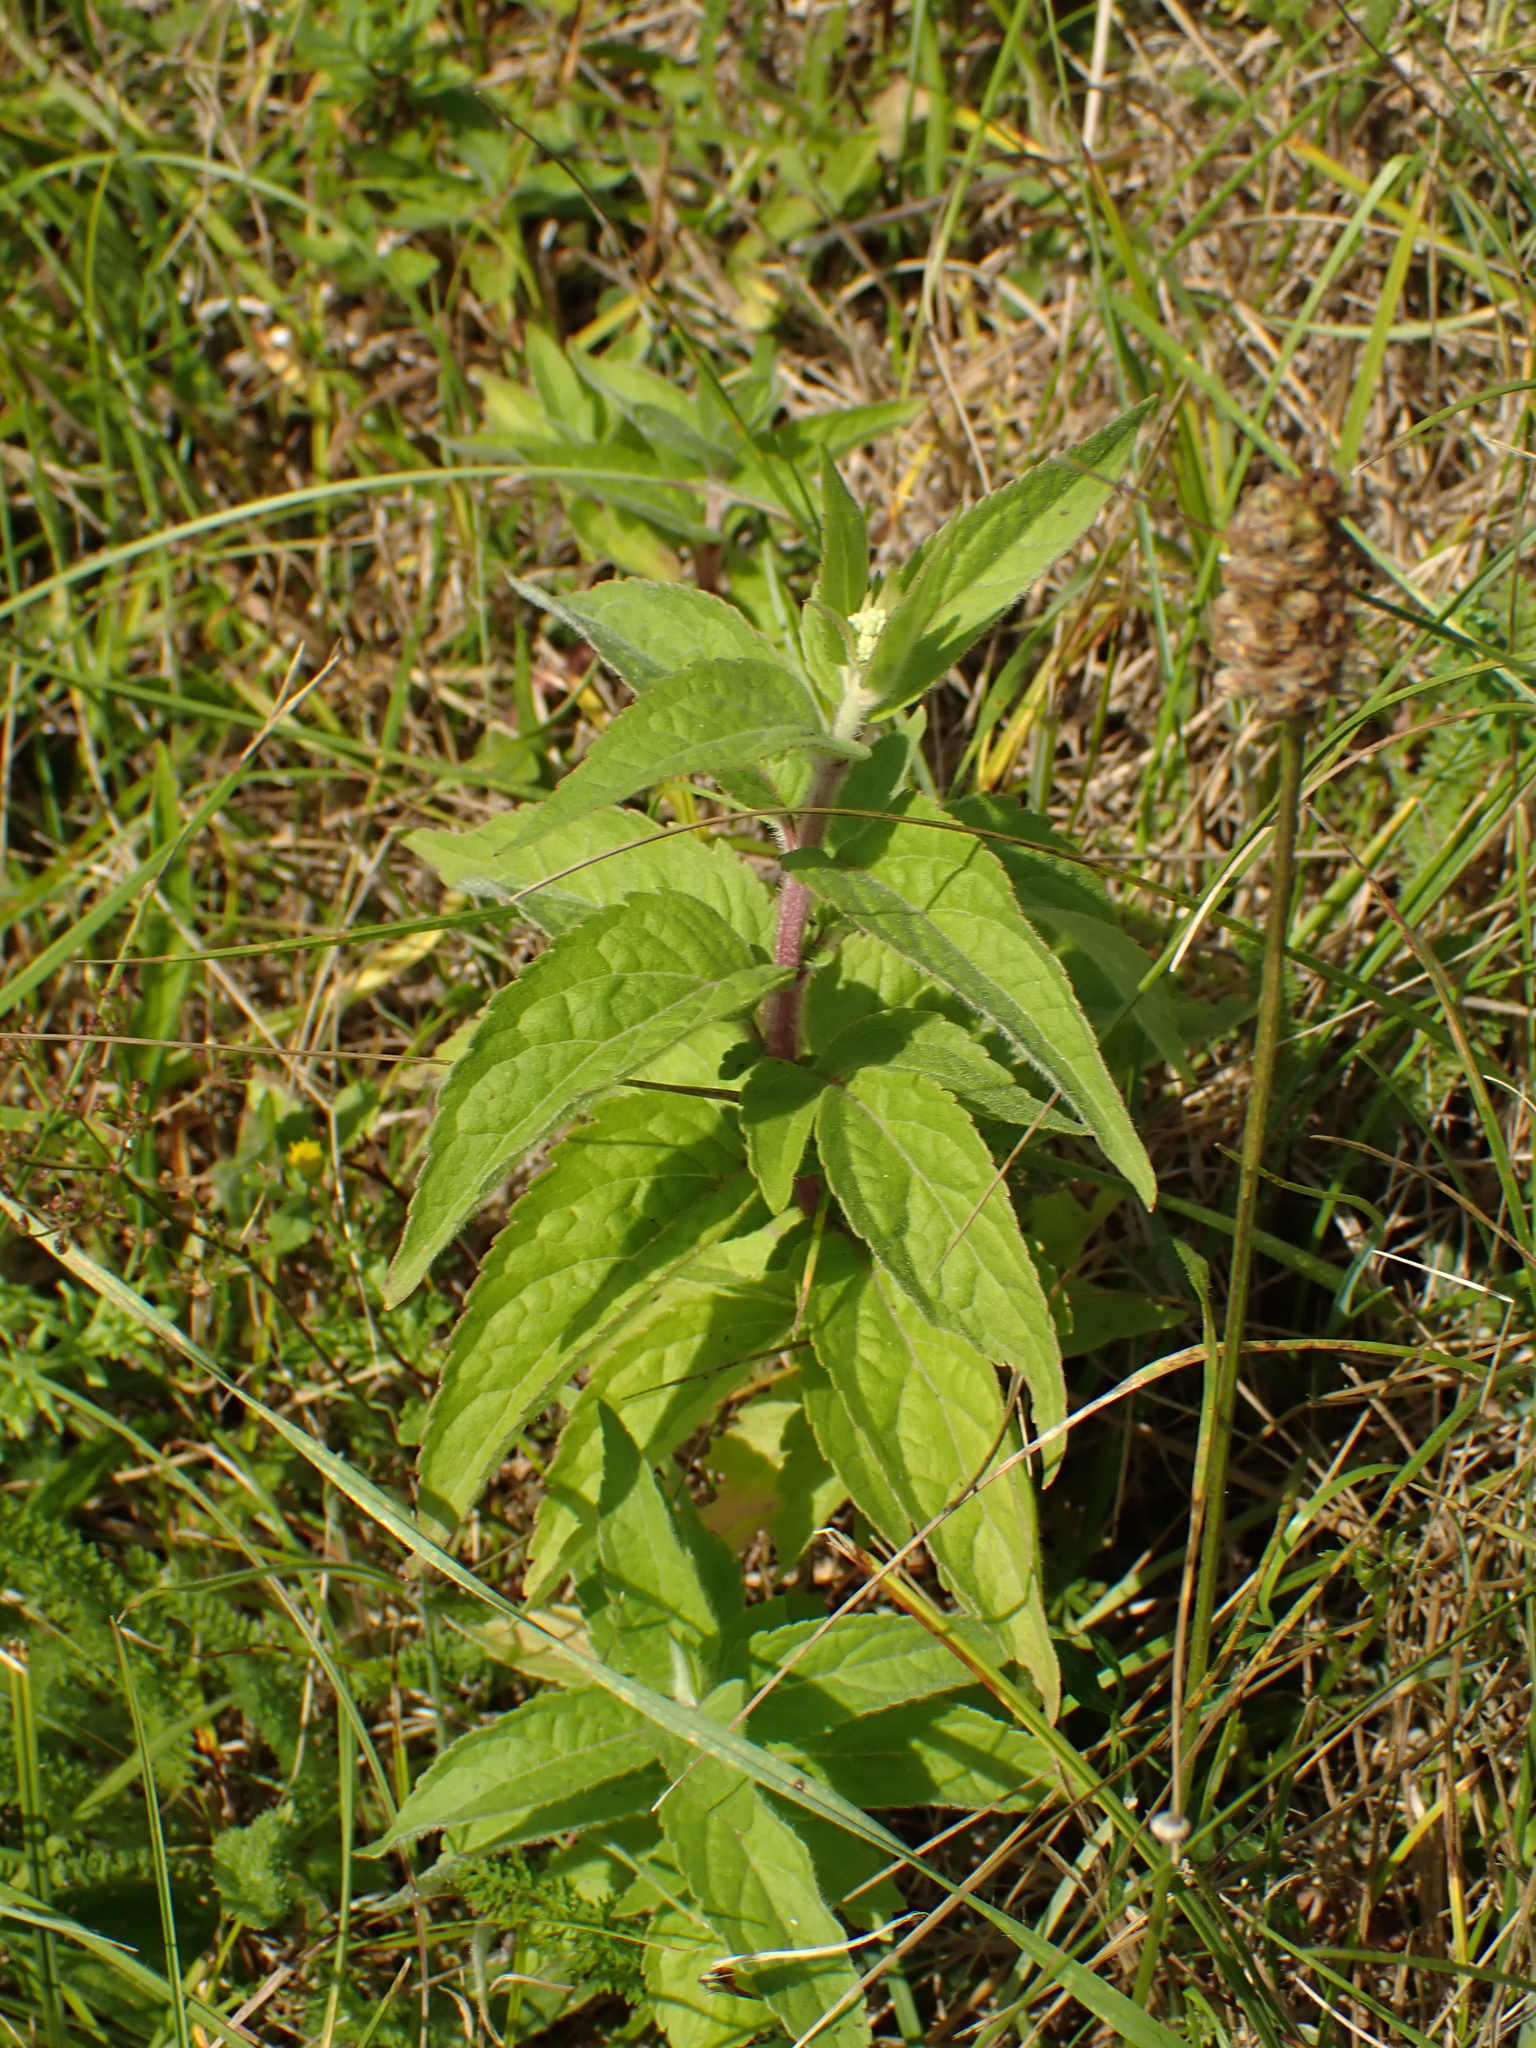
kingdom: Plantae
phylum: Tracheophyta
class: Magnoliopsida
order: Asterales
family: Asteraceae
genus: Eupatorium
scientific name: Eupatorium cannabinum
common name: Hemp-agrimony
